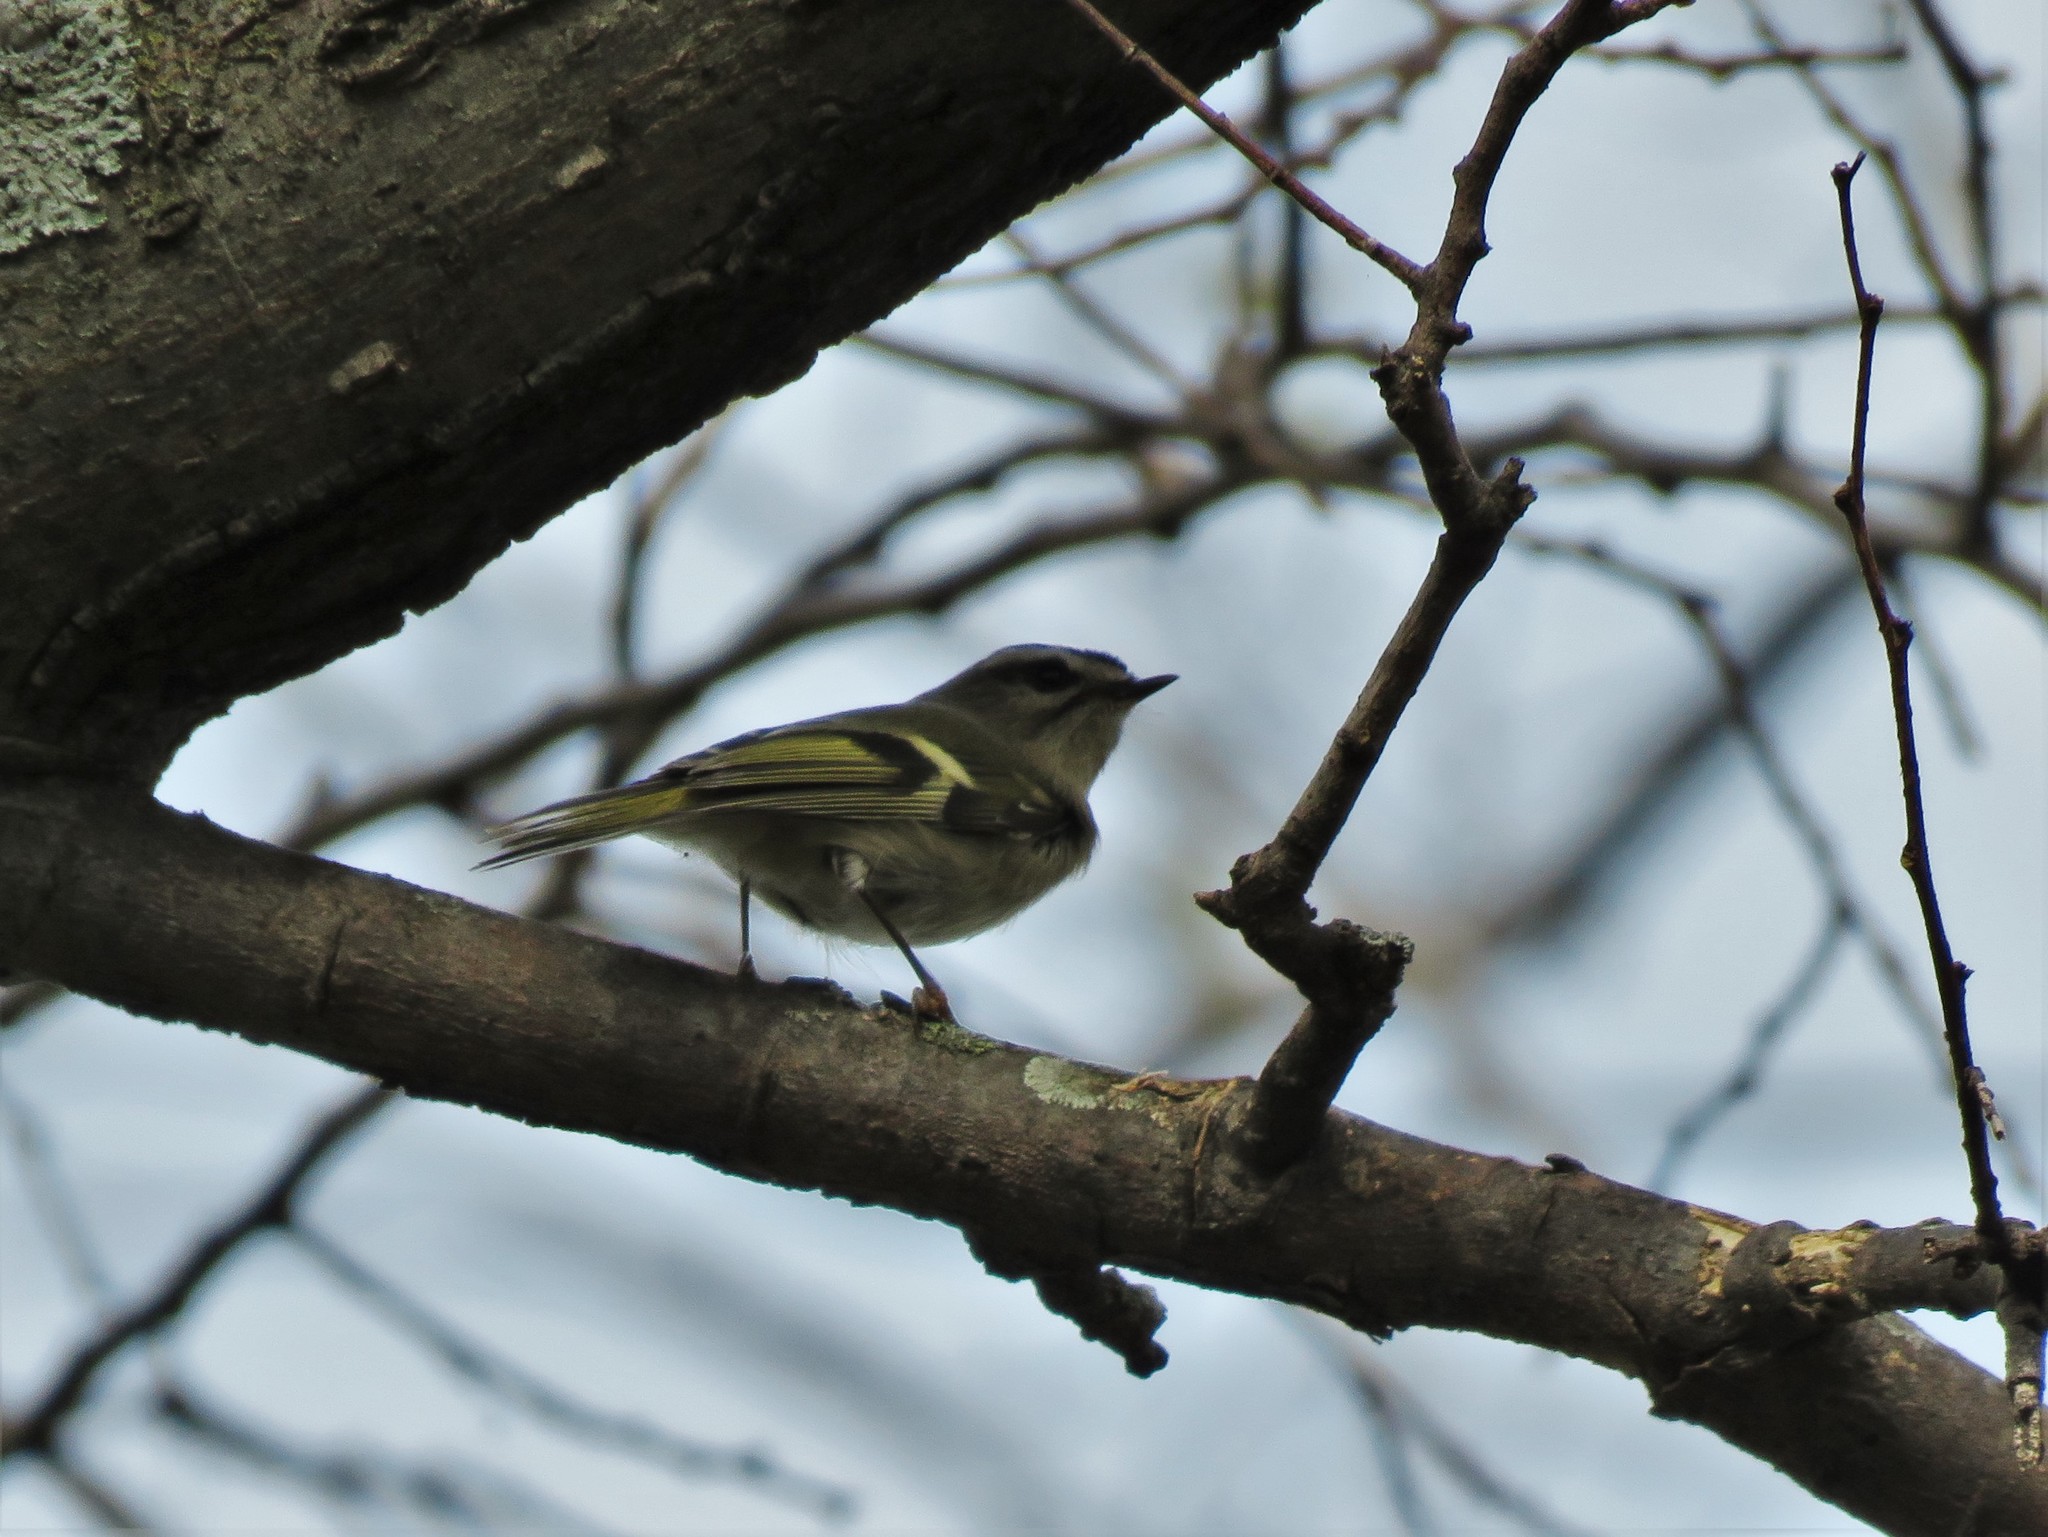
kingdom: Animalia
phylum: Chordata
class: Aves
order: Passeriformes
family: Regulidae
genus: Regulus
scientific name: Regulus satrapa
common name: Golden-crowned kinglet
